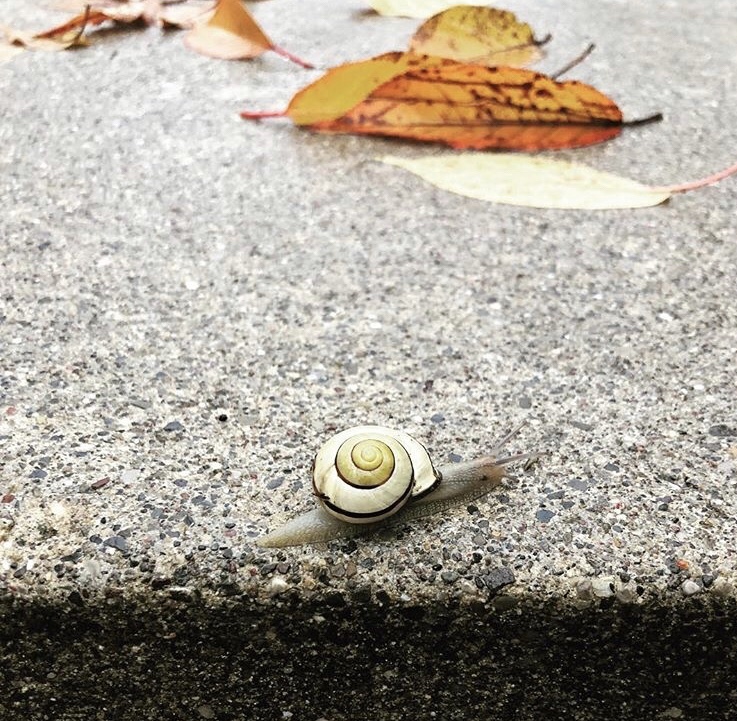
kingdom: Animalia
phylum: Mollusca
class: Gastropoda
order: Stylommatophora
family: Helicidae
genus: Cepaea
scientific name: Cepaea nemoralis
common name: Grovesnail
